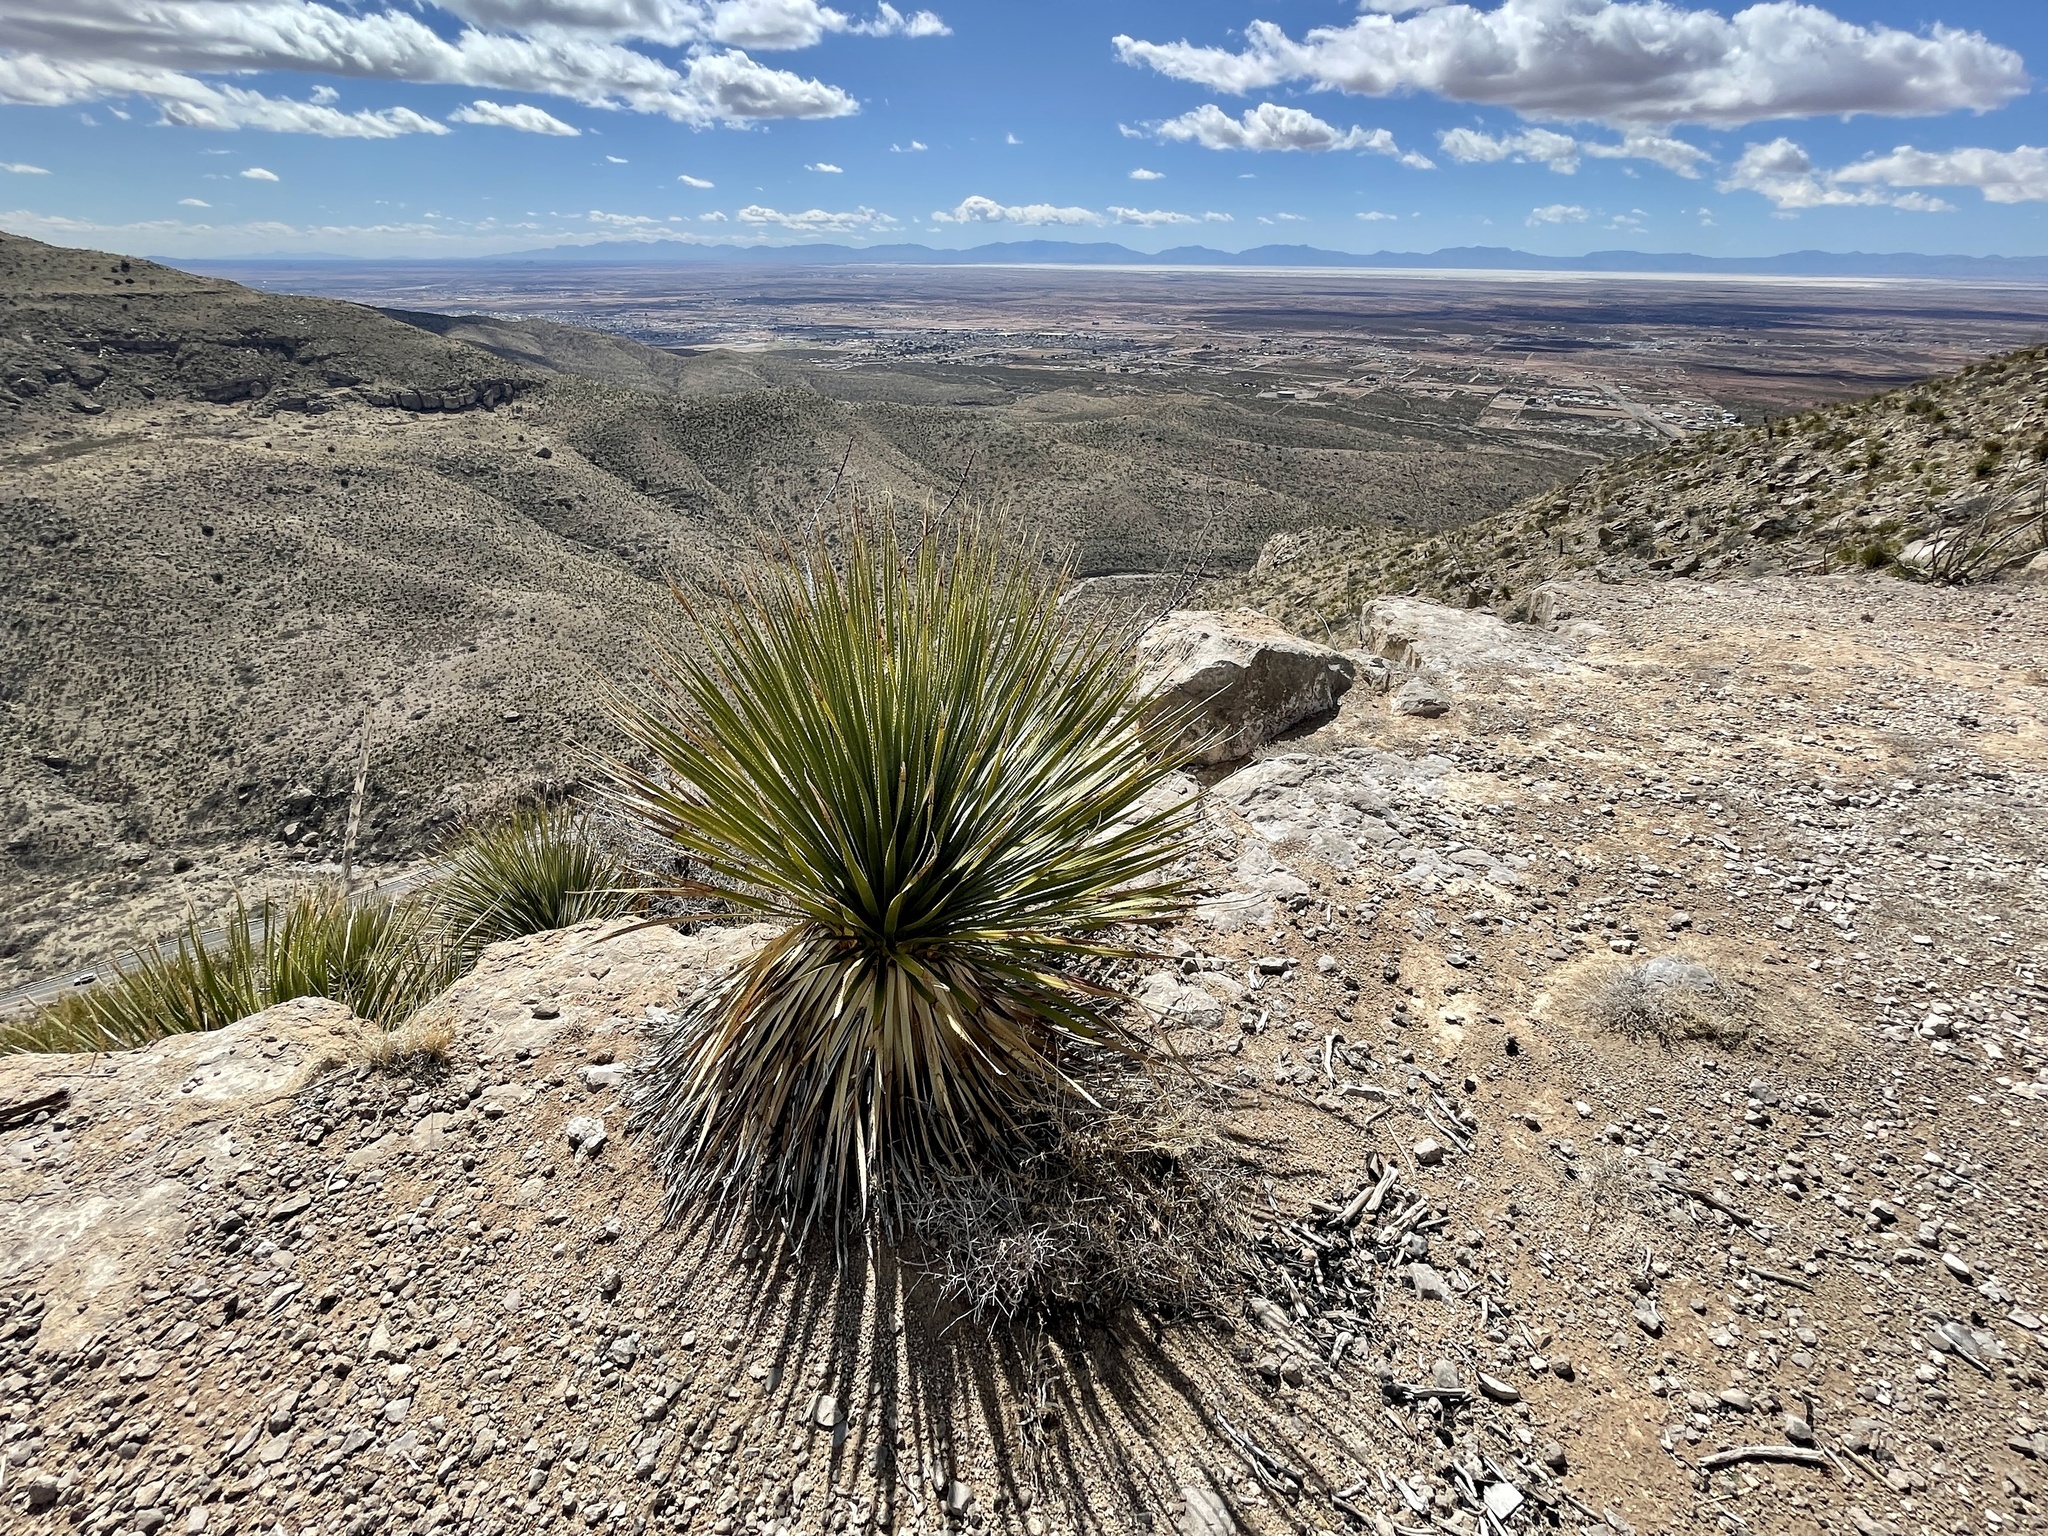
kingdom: Plantae
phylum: Tracheophyta
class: Liliopsida
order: Asparagales
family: Asparagaceae
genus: Dasylirion
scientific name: Dasylirion wheeleri
